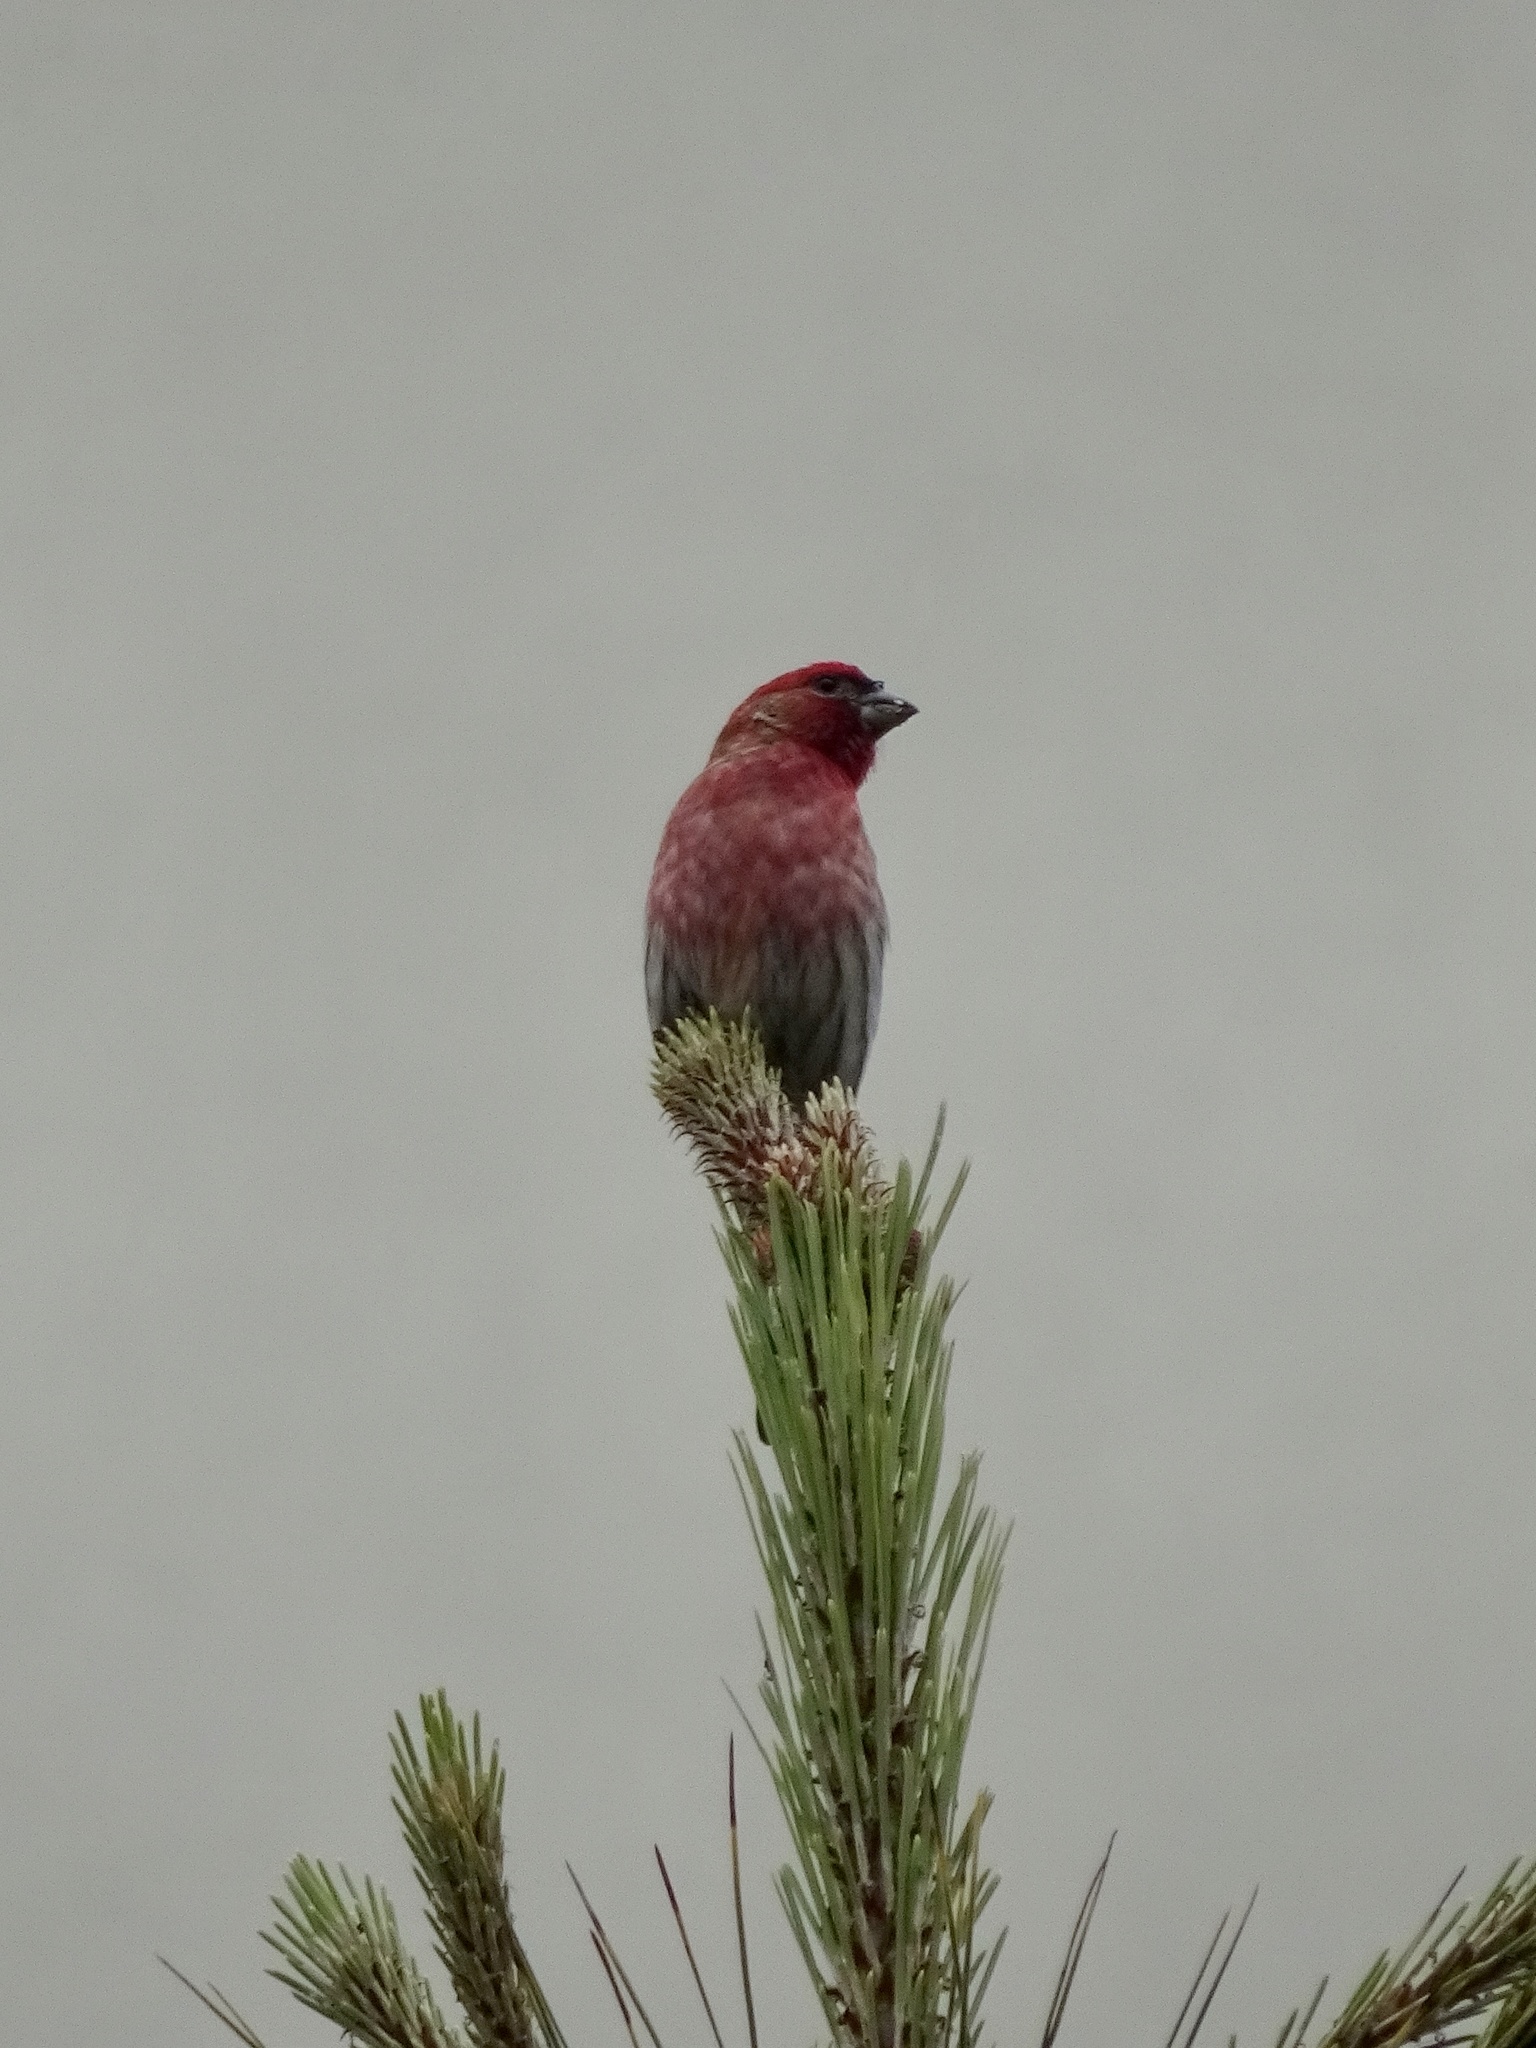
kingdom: Animalia
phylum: Chordata
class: Aves
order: Passeriformes
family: Fringillidae
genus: Haemorhous
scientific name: Haemorhous mexicanus
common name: House finch
